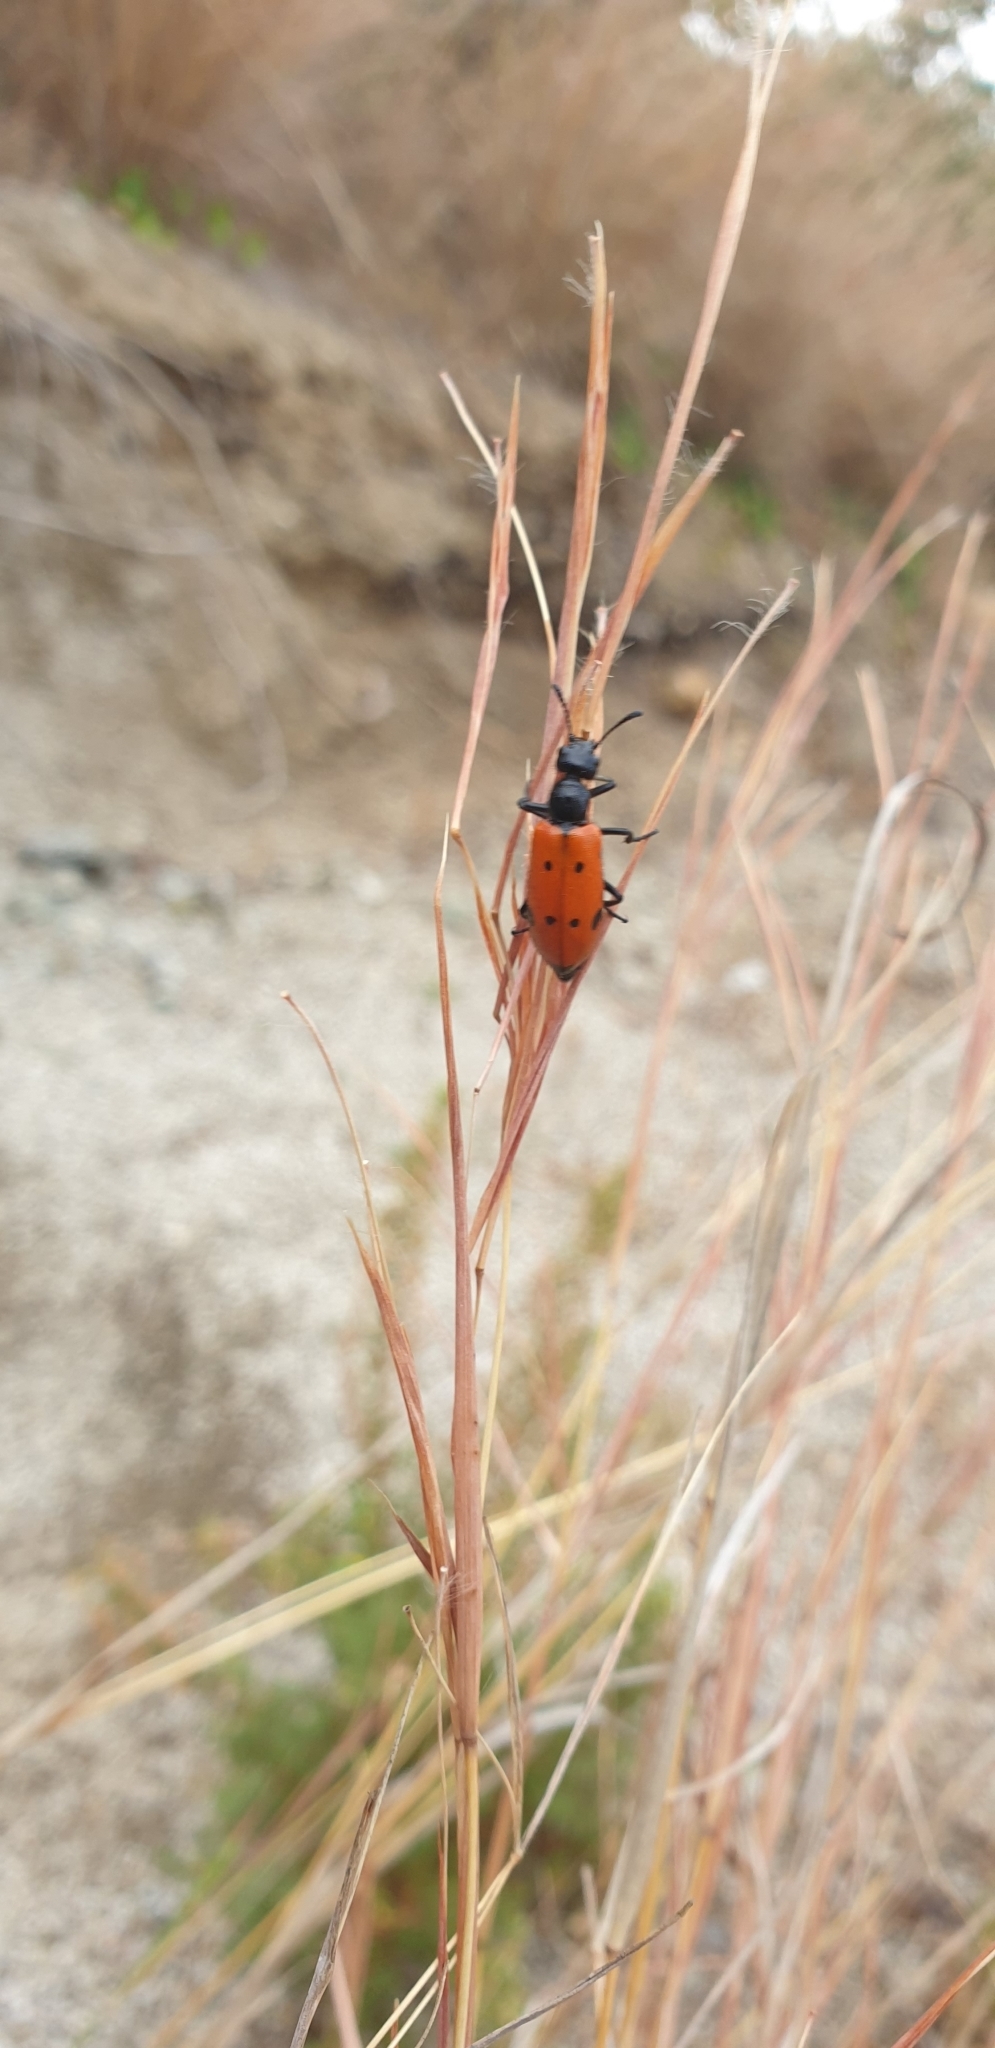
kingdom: Animalia
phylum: Arthropoda
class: Insecta
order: Coleoptera
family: Meloidae
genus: Mylabris
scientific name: Mylabris quadripunctata
